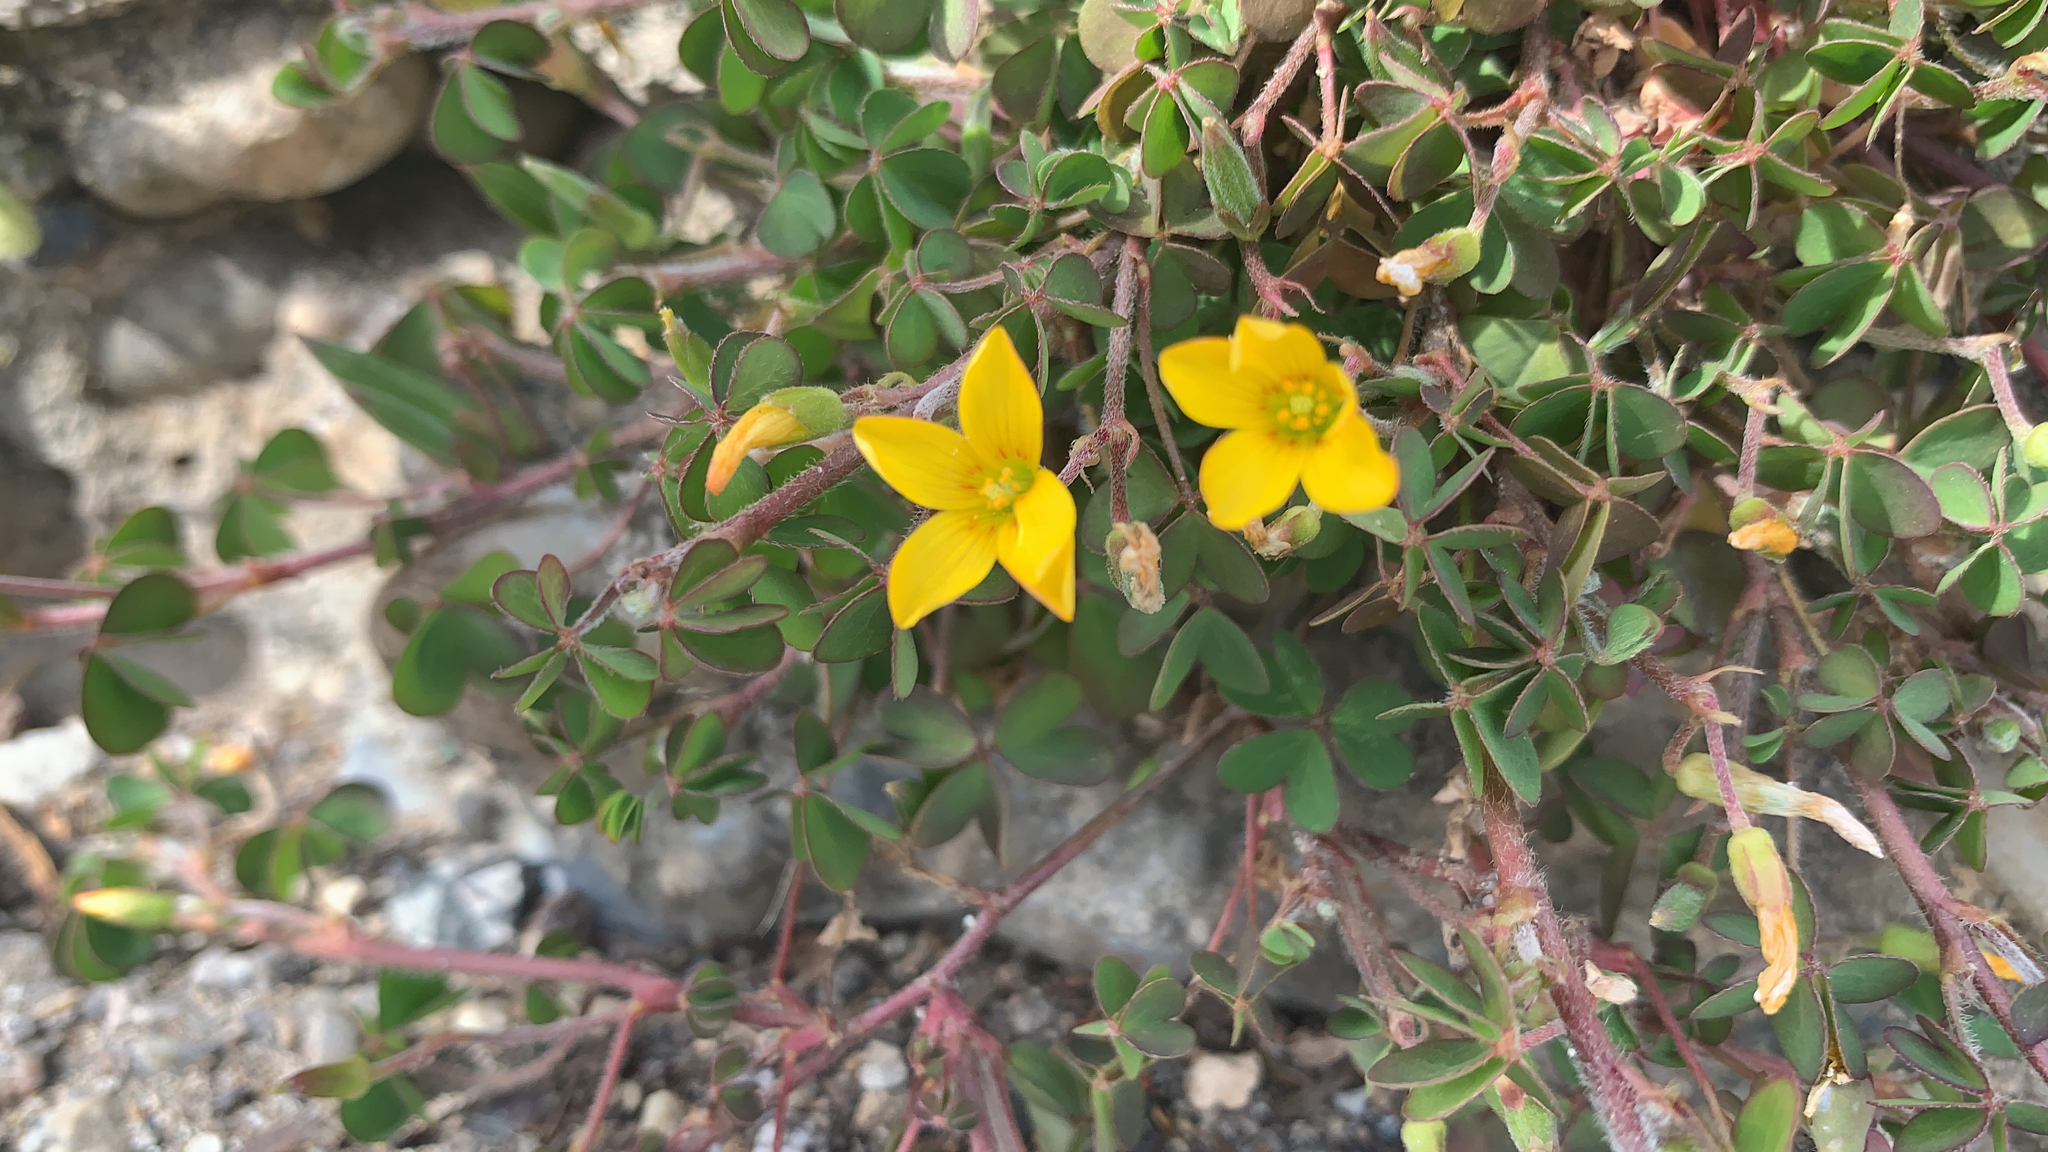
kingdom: Plantae
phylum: Tracheophyta
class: Magnoliopsida
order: Oxalidales
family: Oxalidaceae
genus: Oxalis
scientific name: Oxalis corniculata
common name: Procumbent yellow-sorrel
